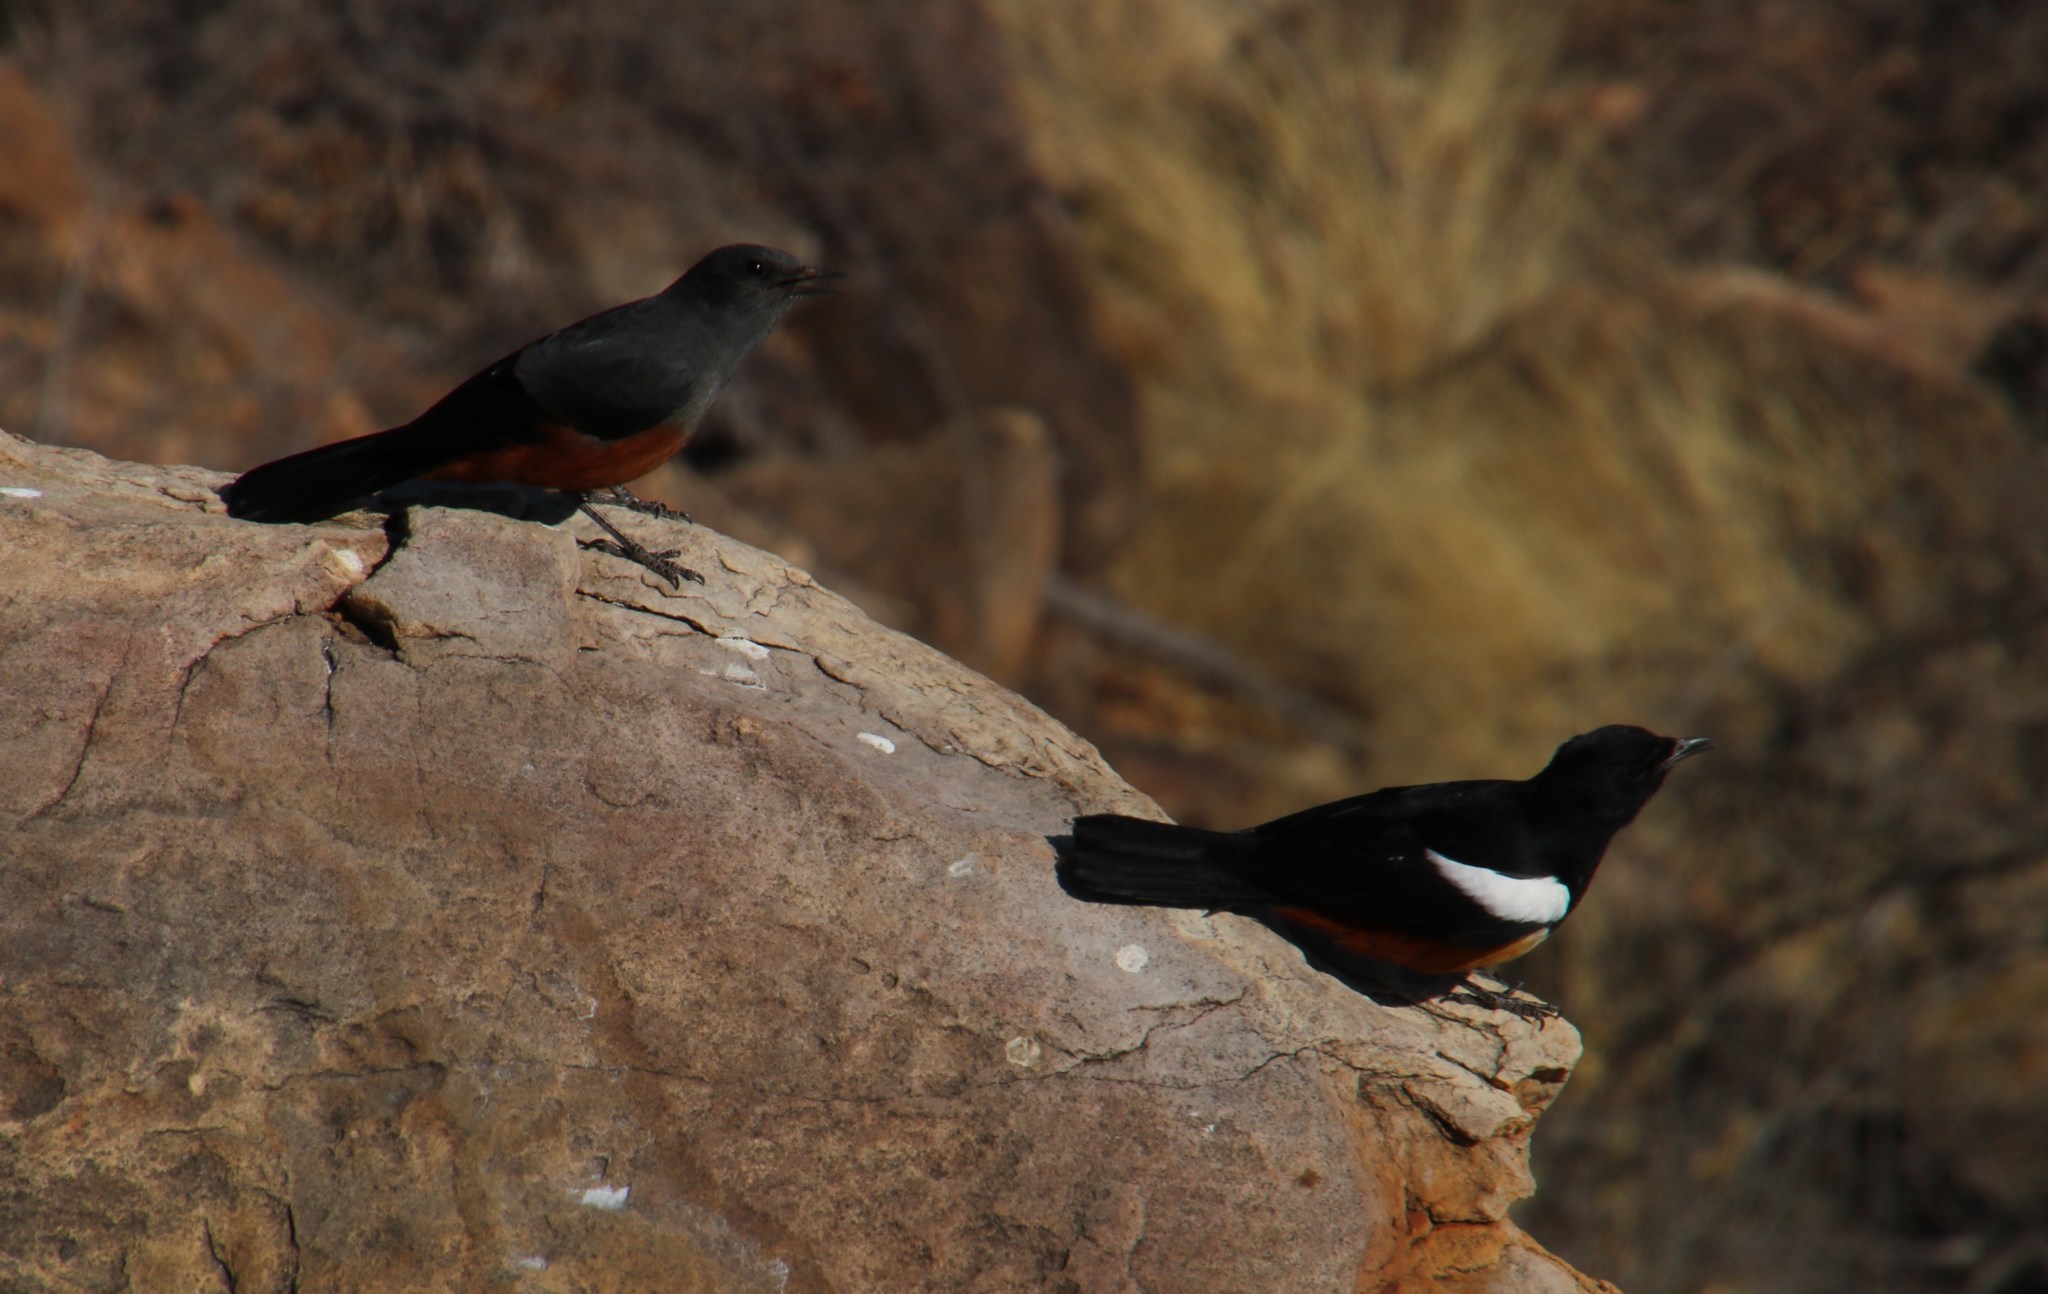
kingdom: Animalia
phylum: Chordata
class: Aves
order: Passeriformes
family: Muscicapidae
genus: Thamnolaea
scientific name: Thamnolaea cinnamomeiventris
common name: Mocking cliff chat
